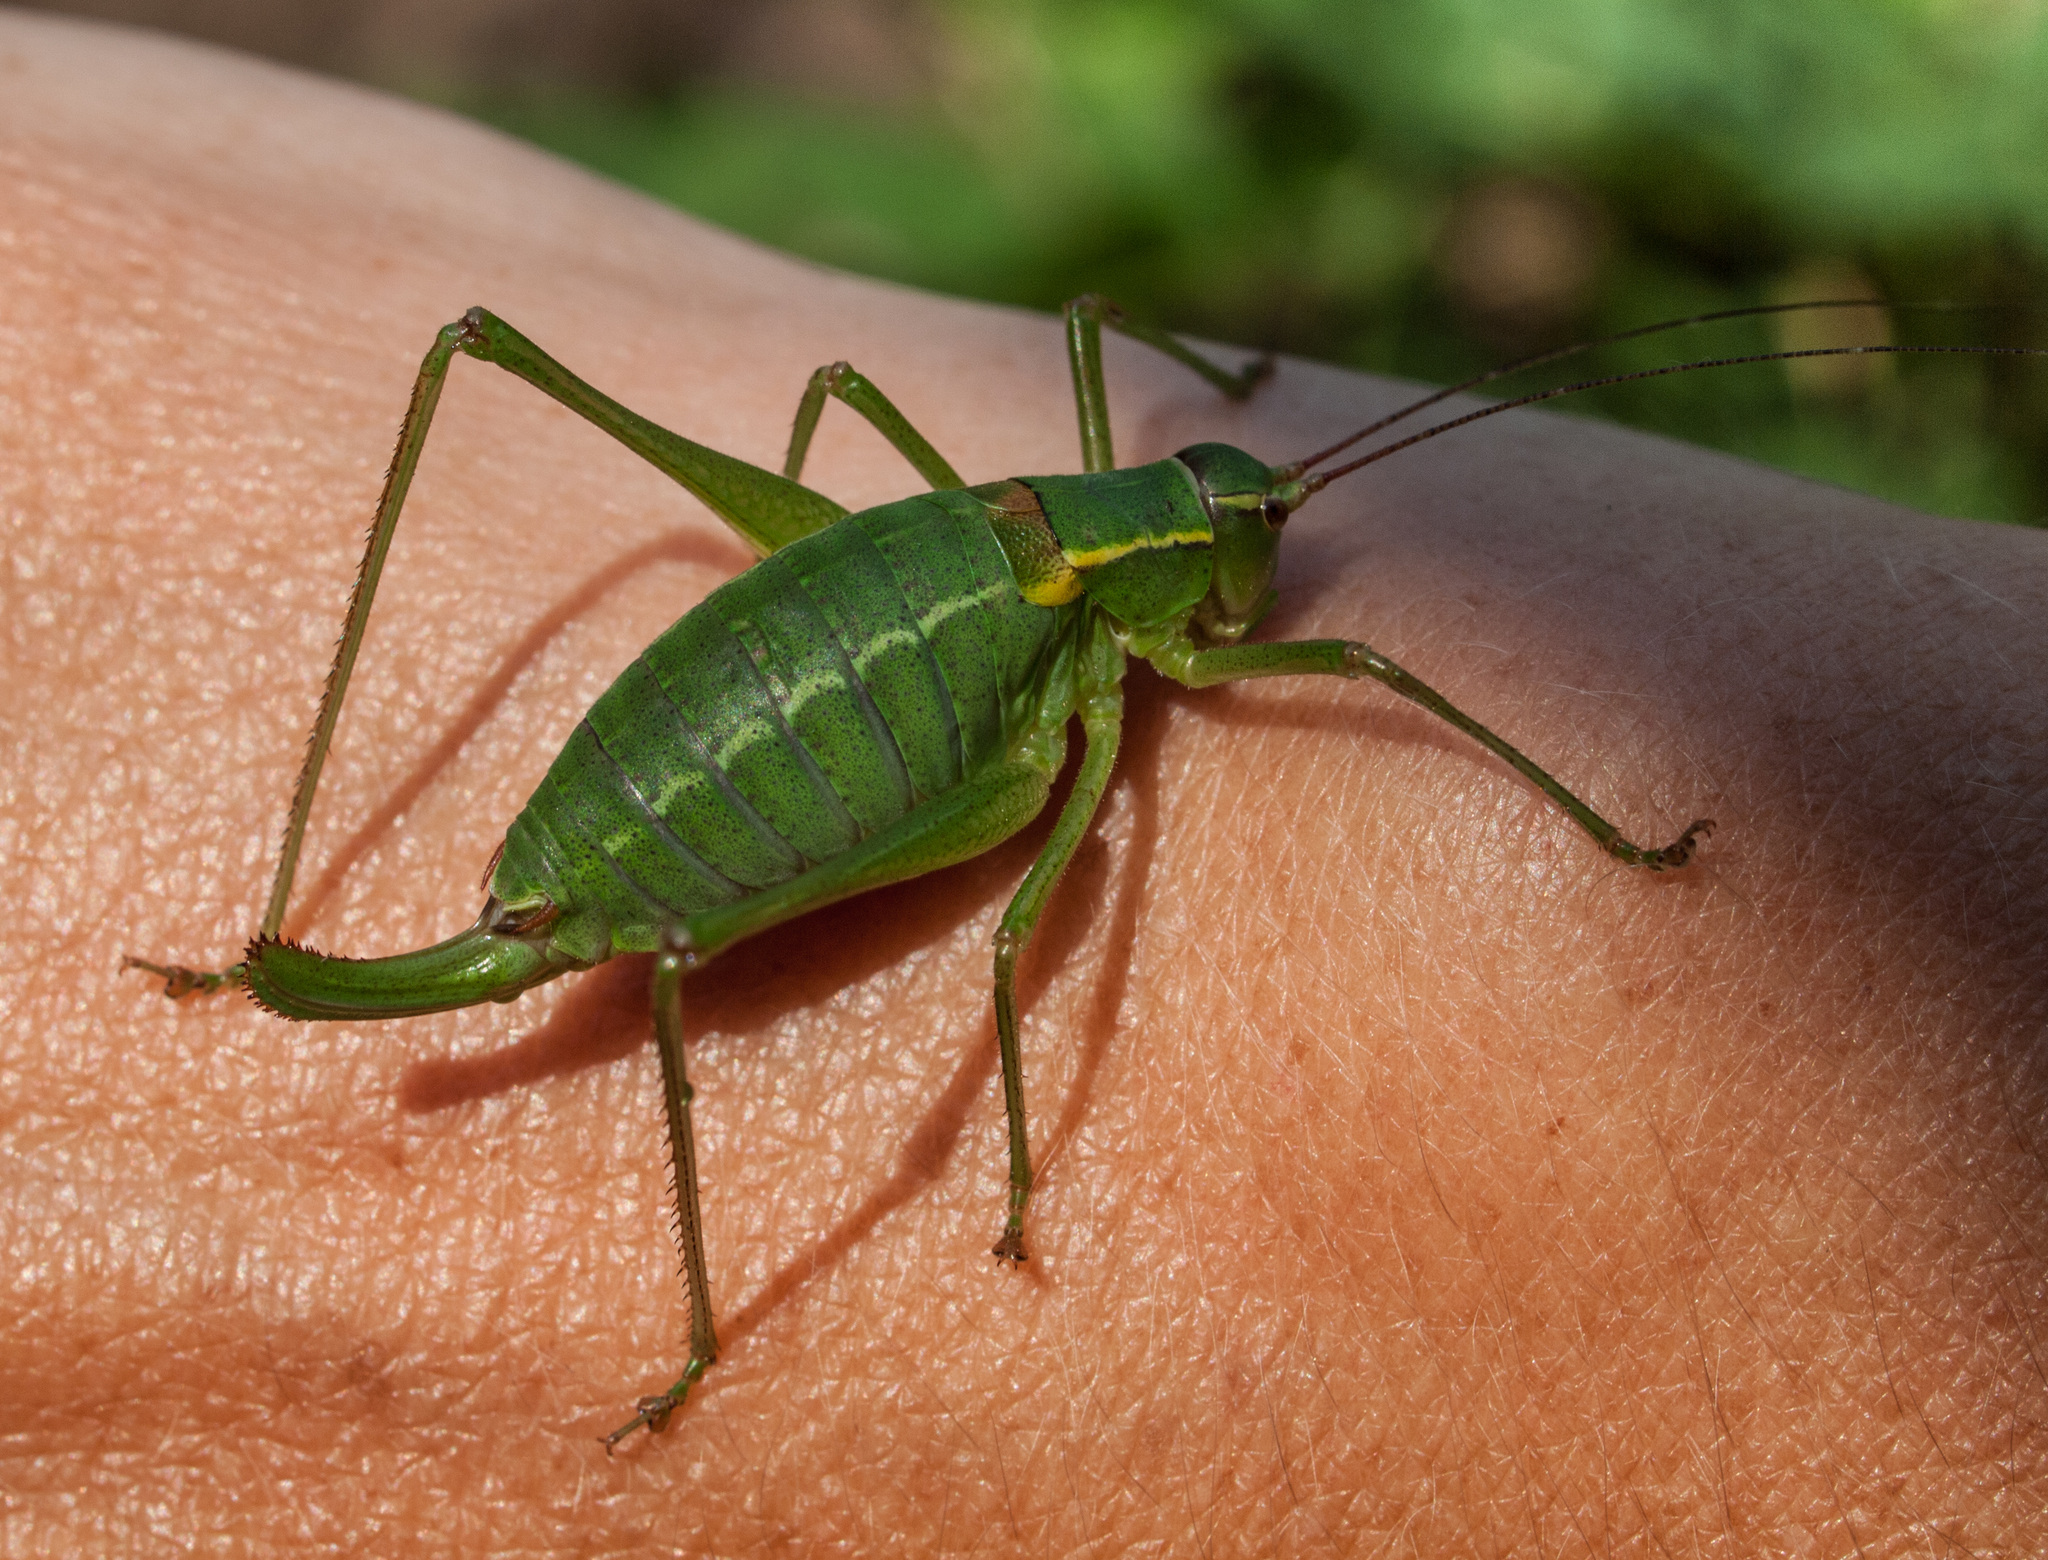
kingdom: Animalia
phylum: Arthropoda
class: Insecta
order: Orthoptera
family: Tettigoniidae
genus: Barbitistes
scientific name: Barbitistes obtusus
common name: Alpine saw bush-cricket
